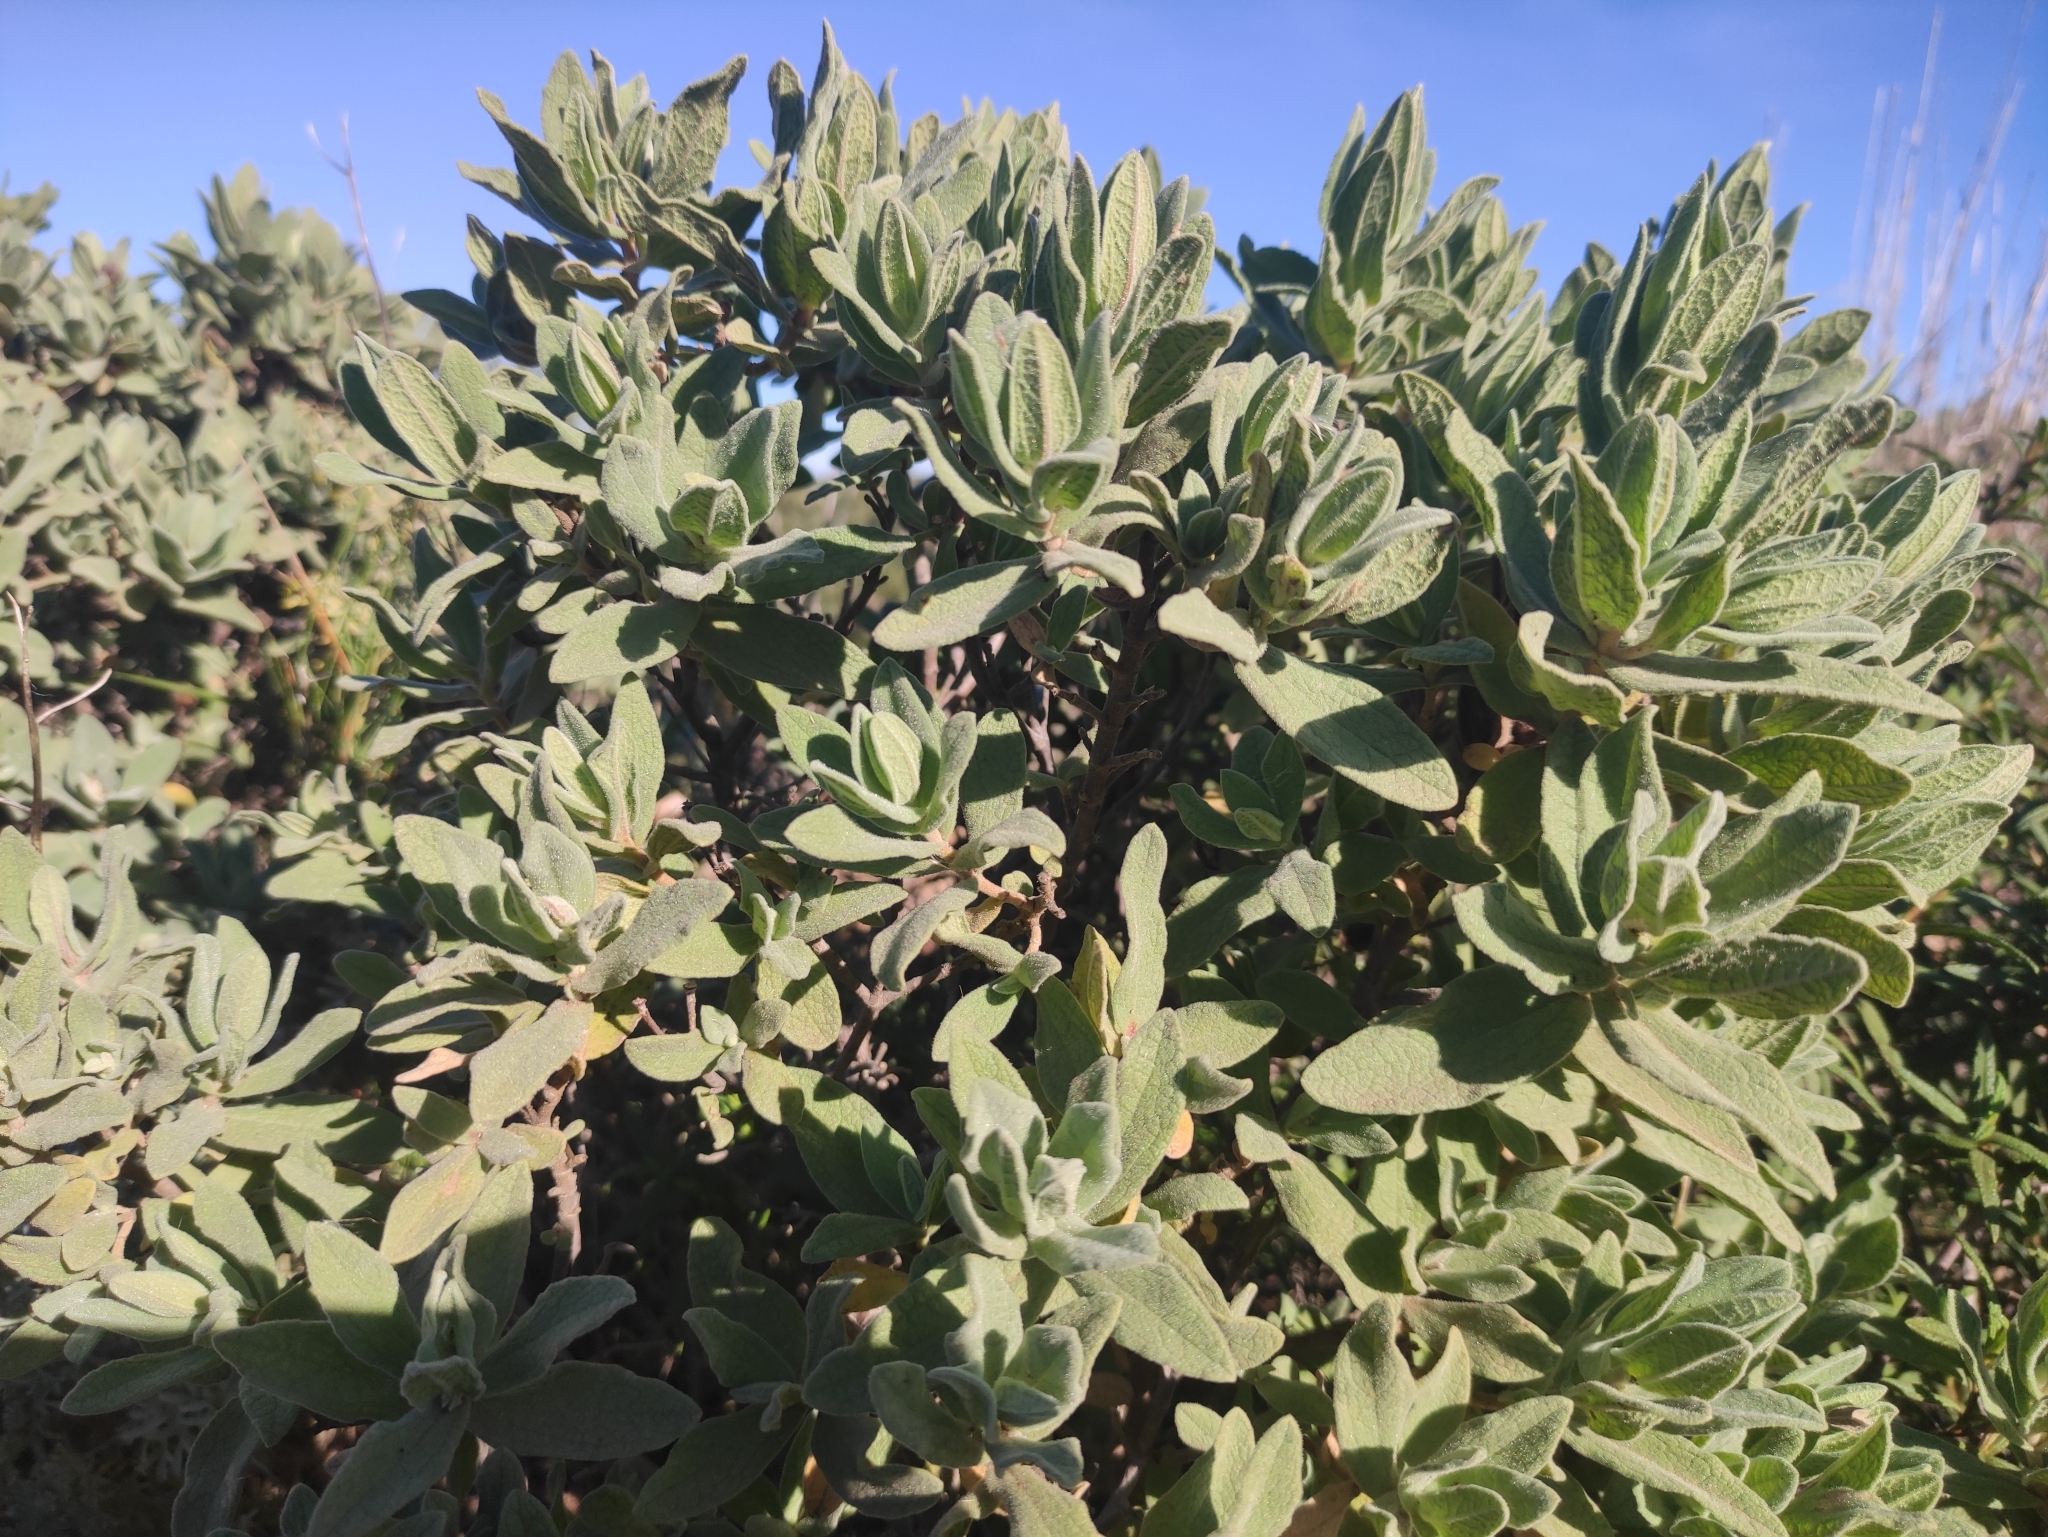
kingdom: Plantae
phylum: Tracheophyta
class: Magnoliopsida
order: Malvales
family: Cistaceae
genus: Cistus
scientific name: Cistus albidus
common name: White-leaf rock-rose
